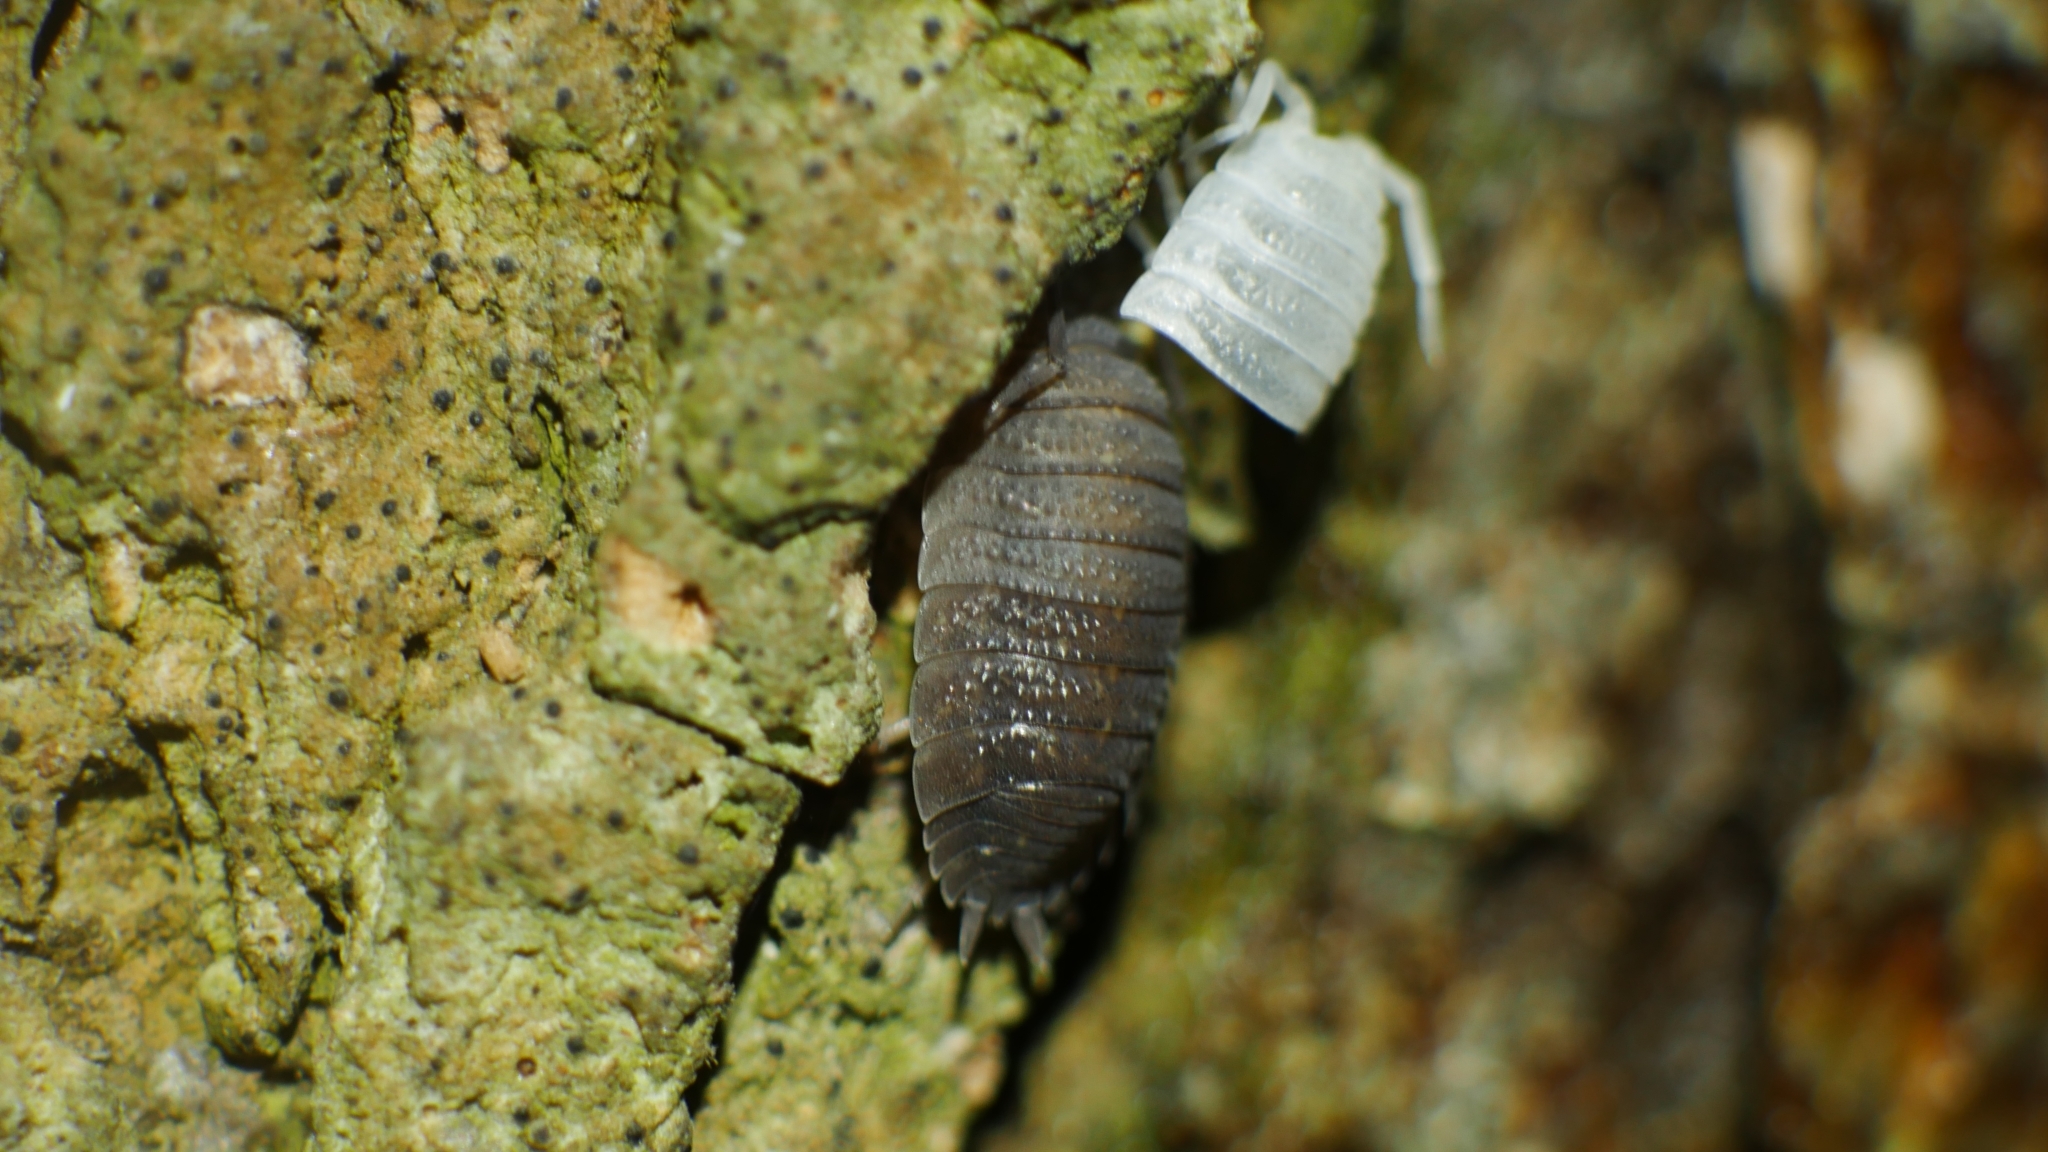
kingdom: Animalia
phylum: Arthropoda
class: Malacostraca
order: Isopoda
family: Porcellionidae
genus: Porcellio
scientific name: Porcellio scaber
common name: Common rough woodlouse
